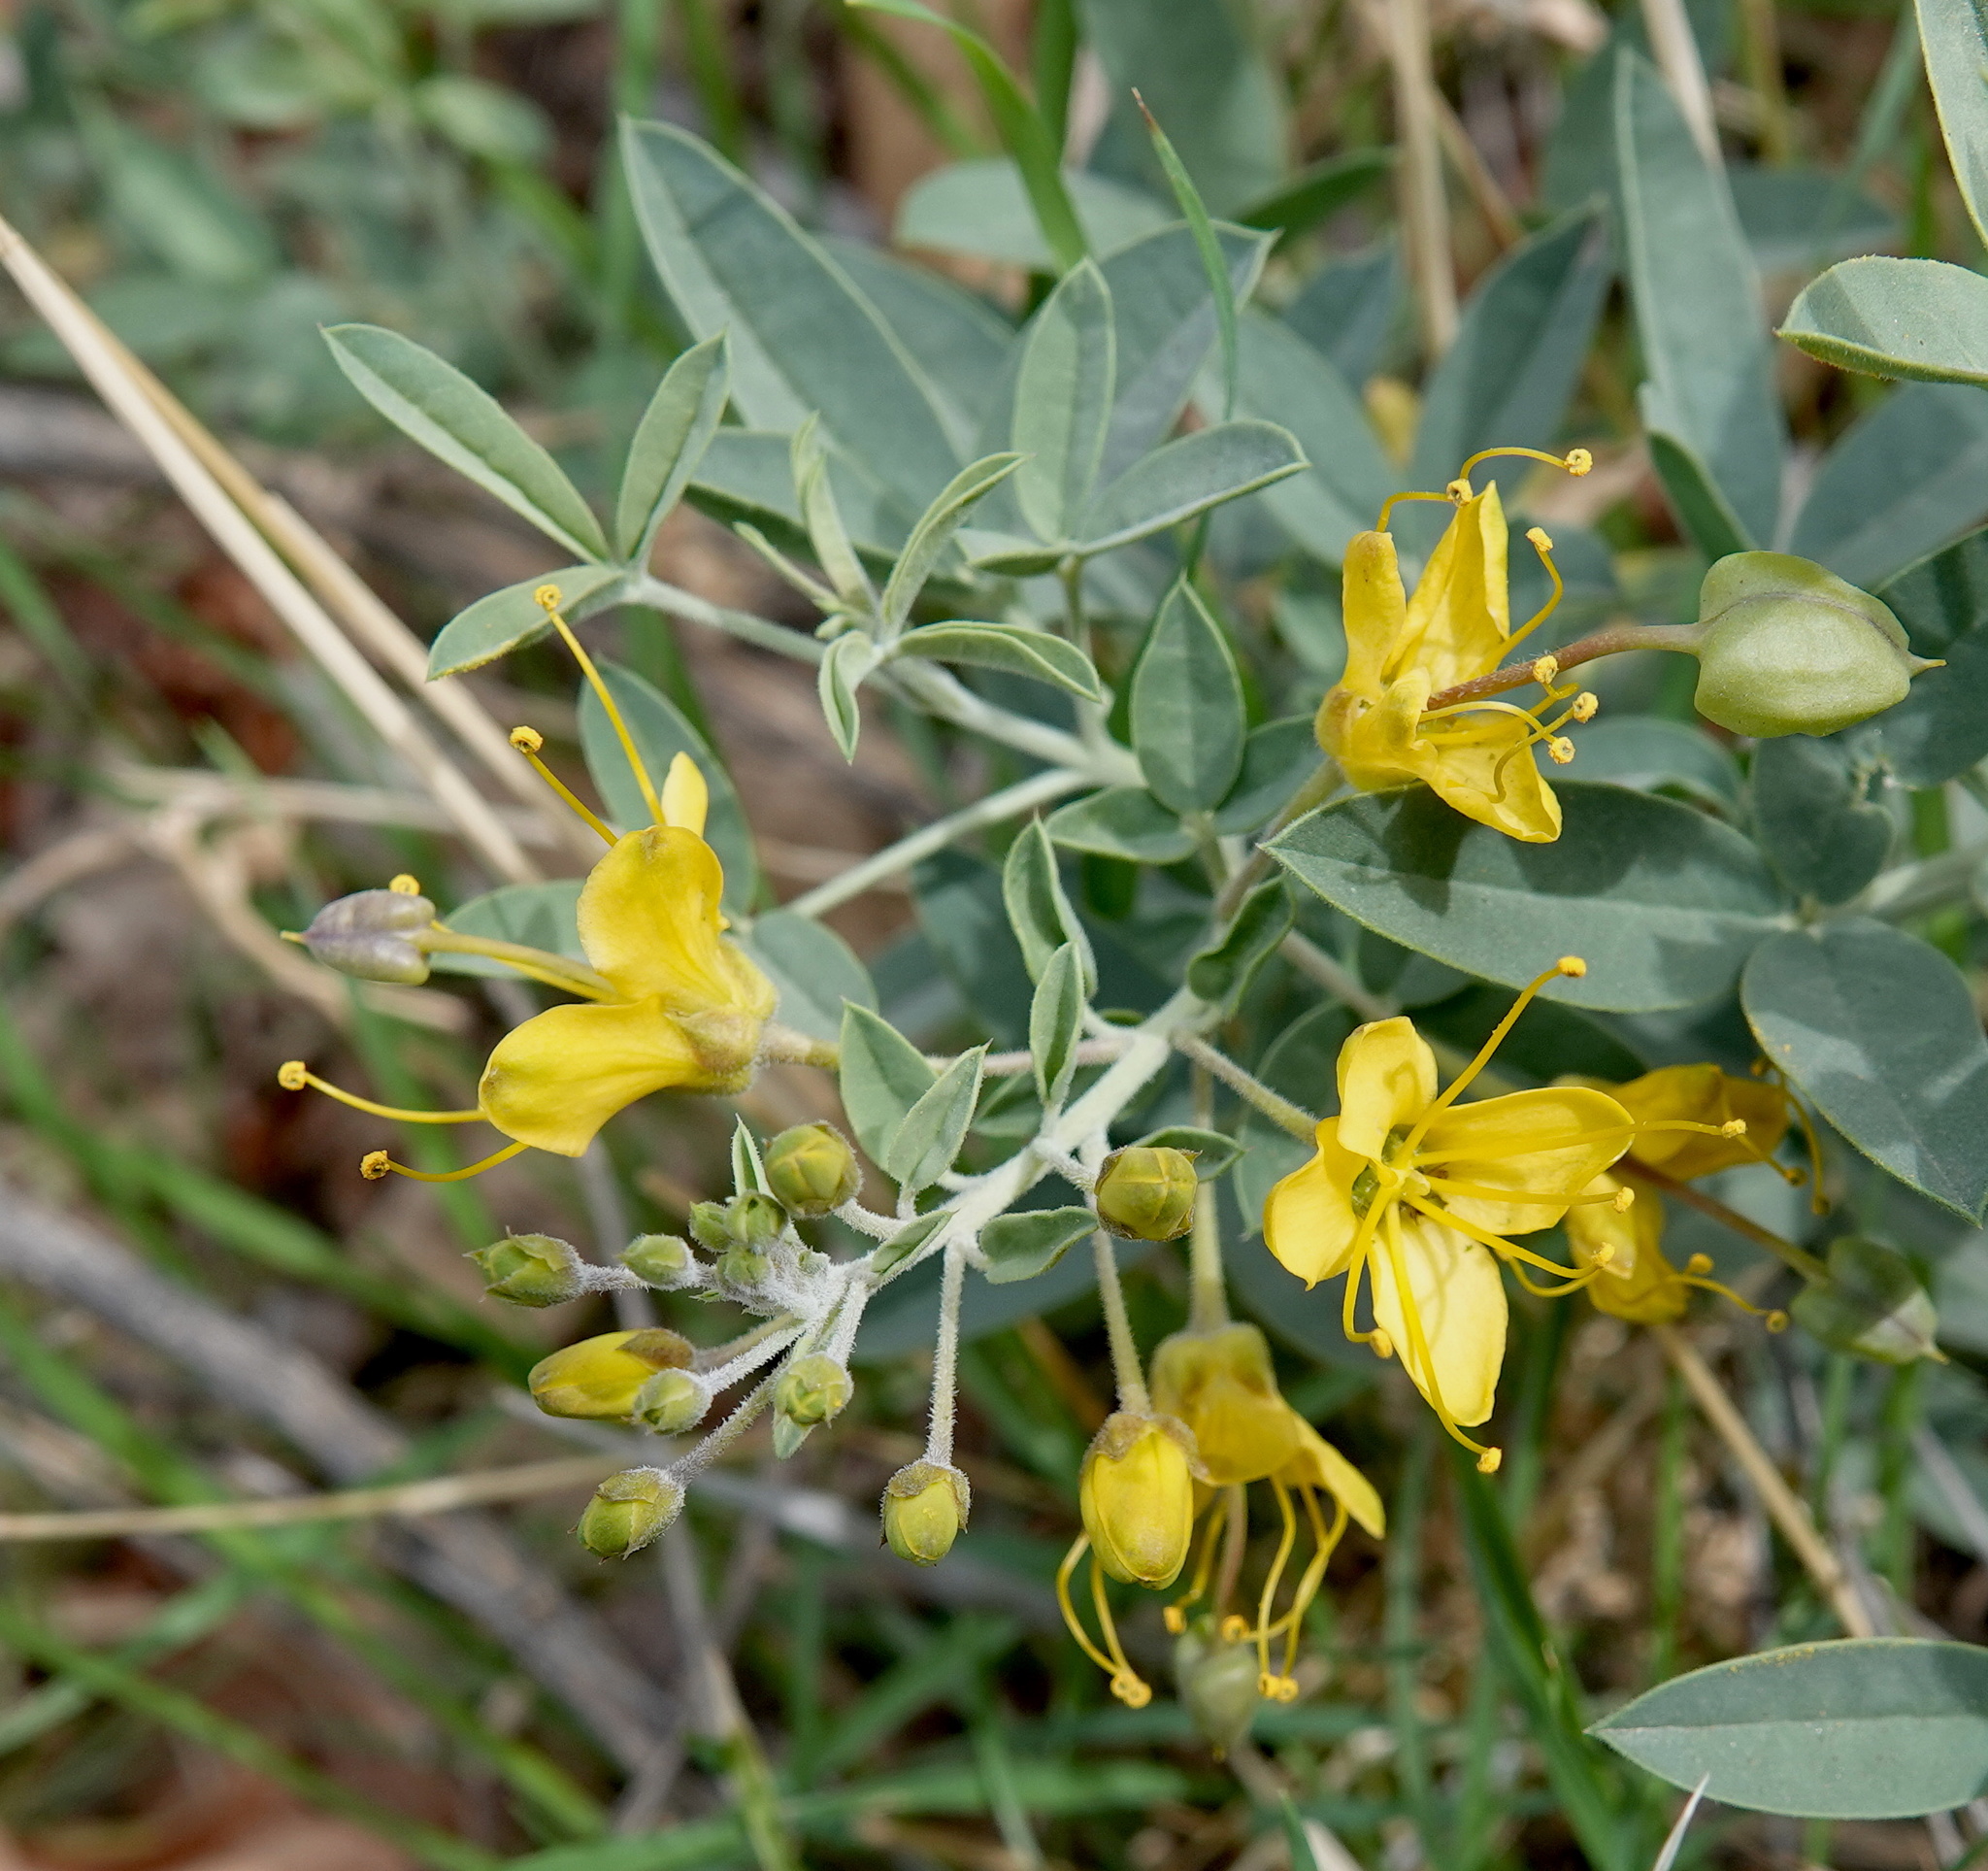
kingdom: Plantae
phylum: Tracheophyta
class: Magnoliopsida
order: Brassicales
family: Cleomaceae
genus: Cleomella
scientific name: Cleomella arborea
